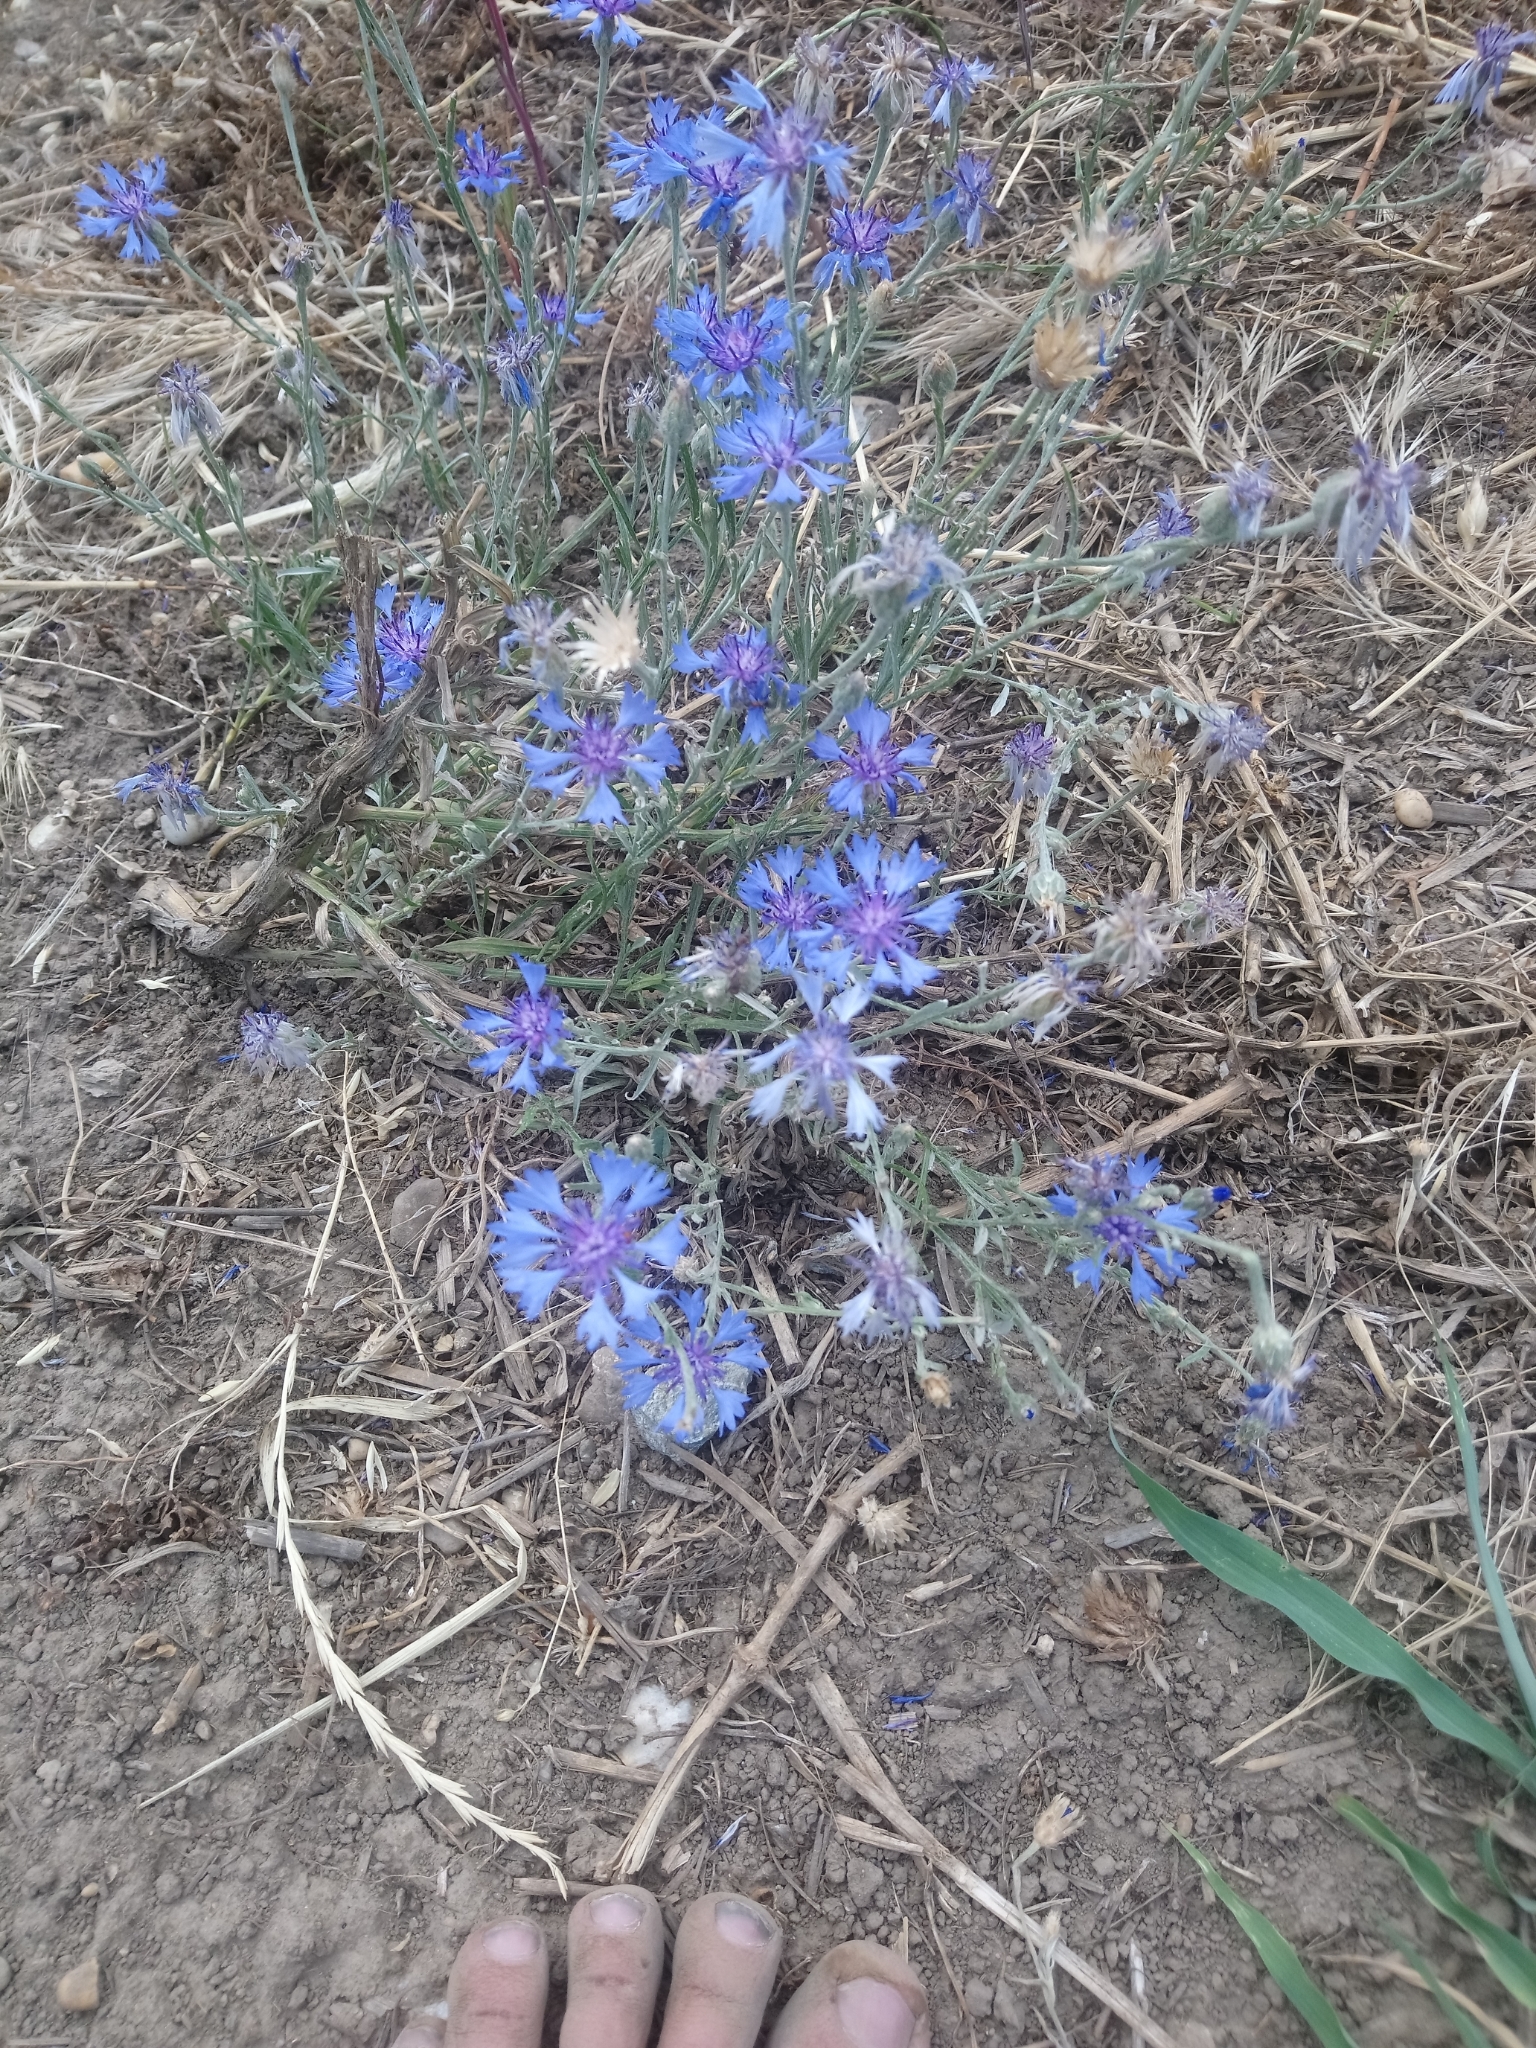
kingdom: Plantae
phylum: Tracheophyta
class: Magnoliopsida
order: Asterales
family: Asteraceae
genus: Centaurea
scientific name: Centaurea cyanus
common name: Cornflower
